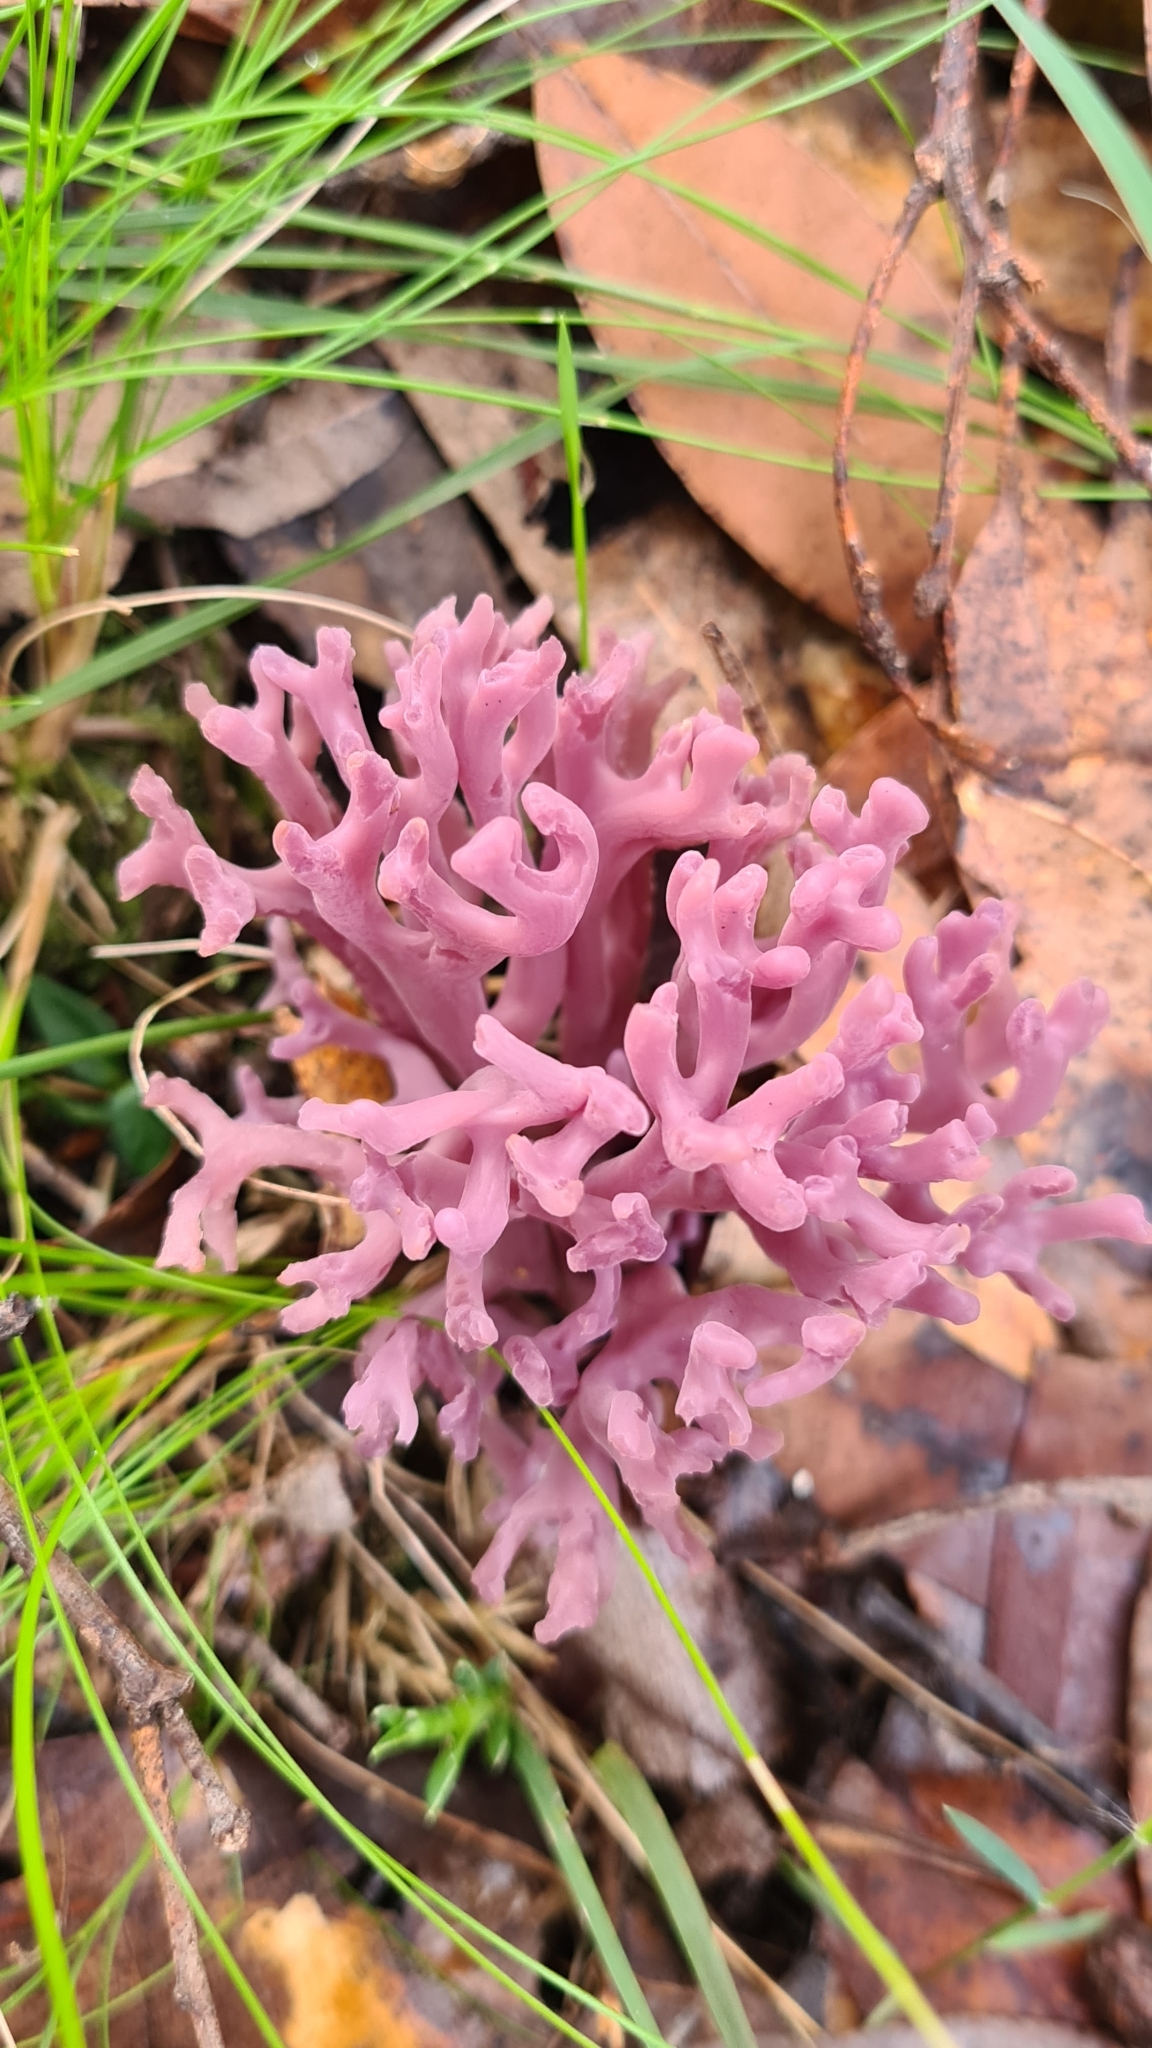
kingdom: Fungi
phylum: Basidiomycota
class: Agaricomycetes
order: Agaricales
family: Clavariaceae
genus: Clavaria
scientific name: Clavaria zollingeri
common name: Violet coral
